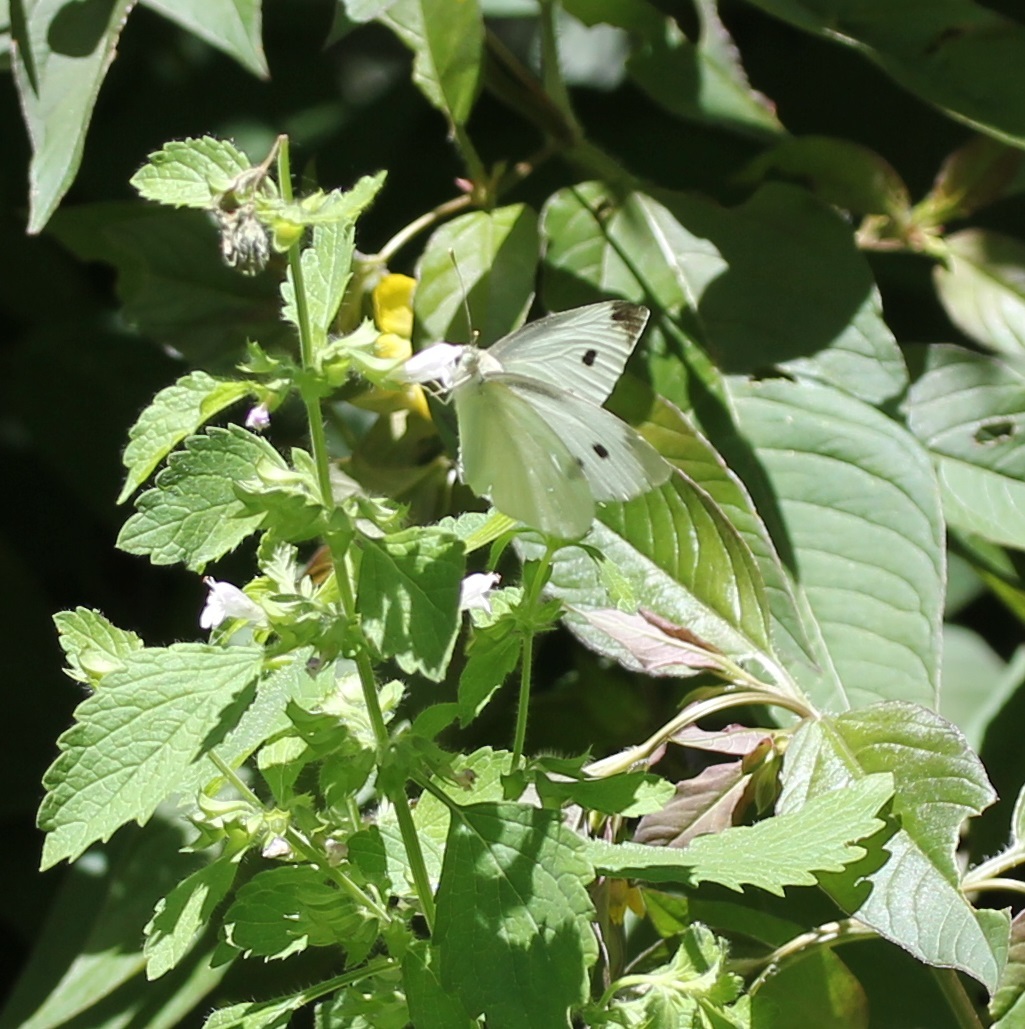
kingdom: Animalia
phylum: Arthropoda
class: Insecta
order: Lepidoptera
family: Pieridae
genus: Pieris
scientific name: Pieris rapae
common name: Small white
